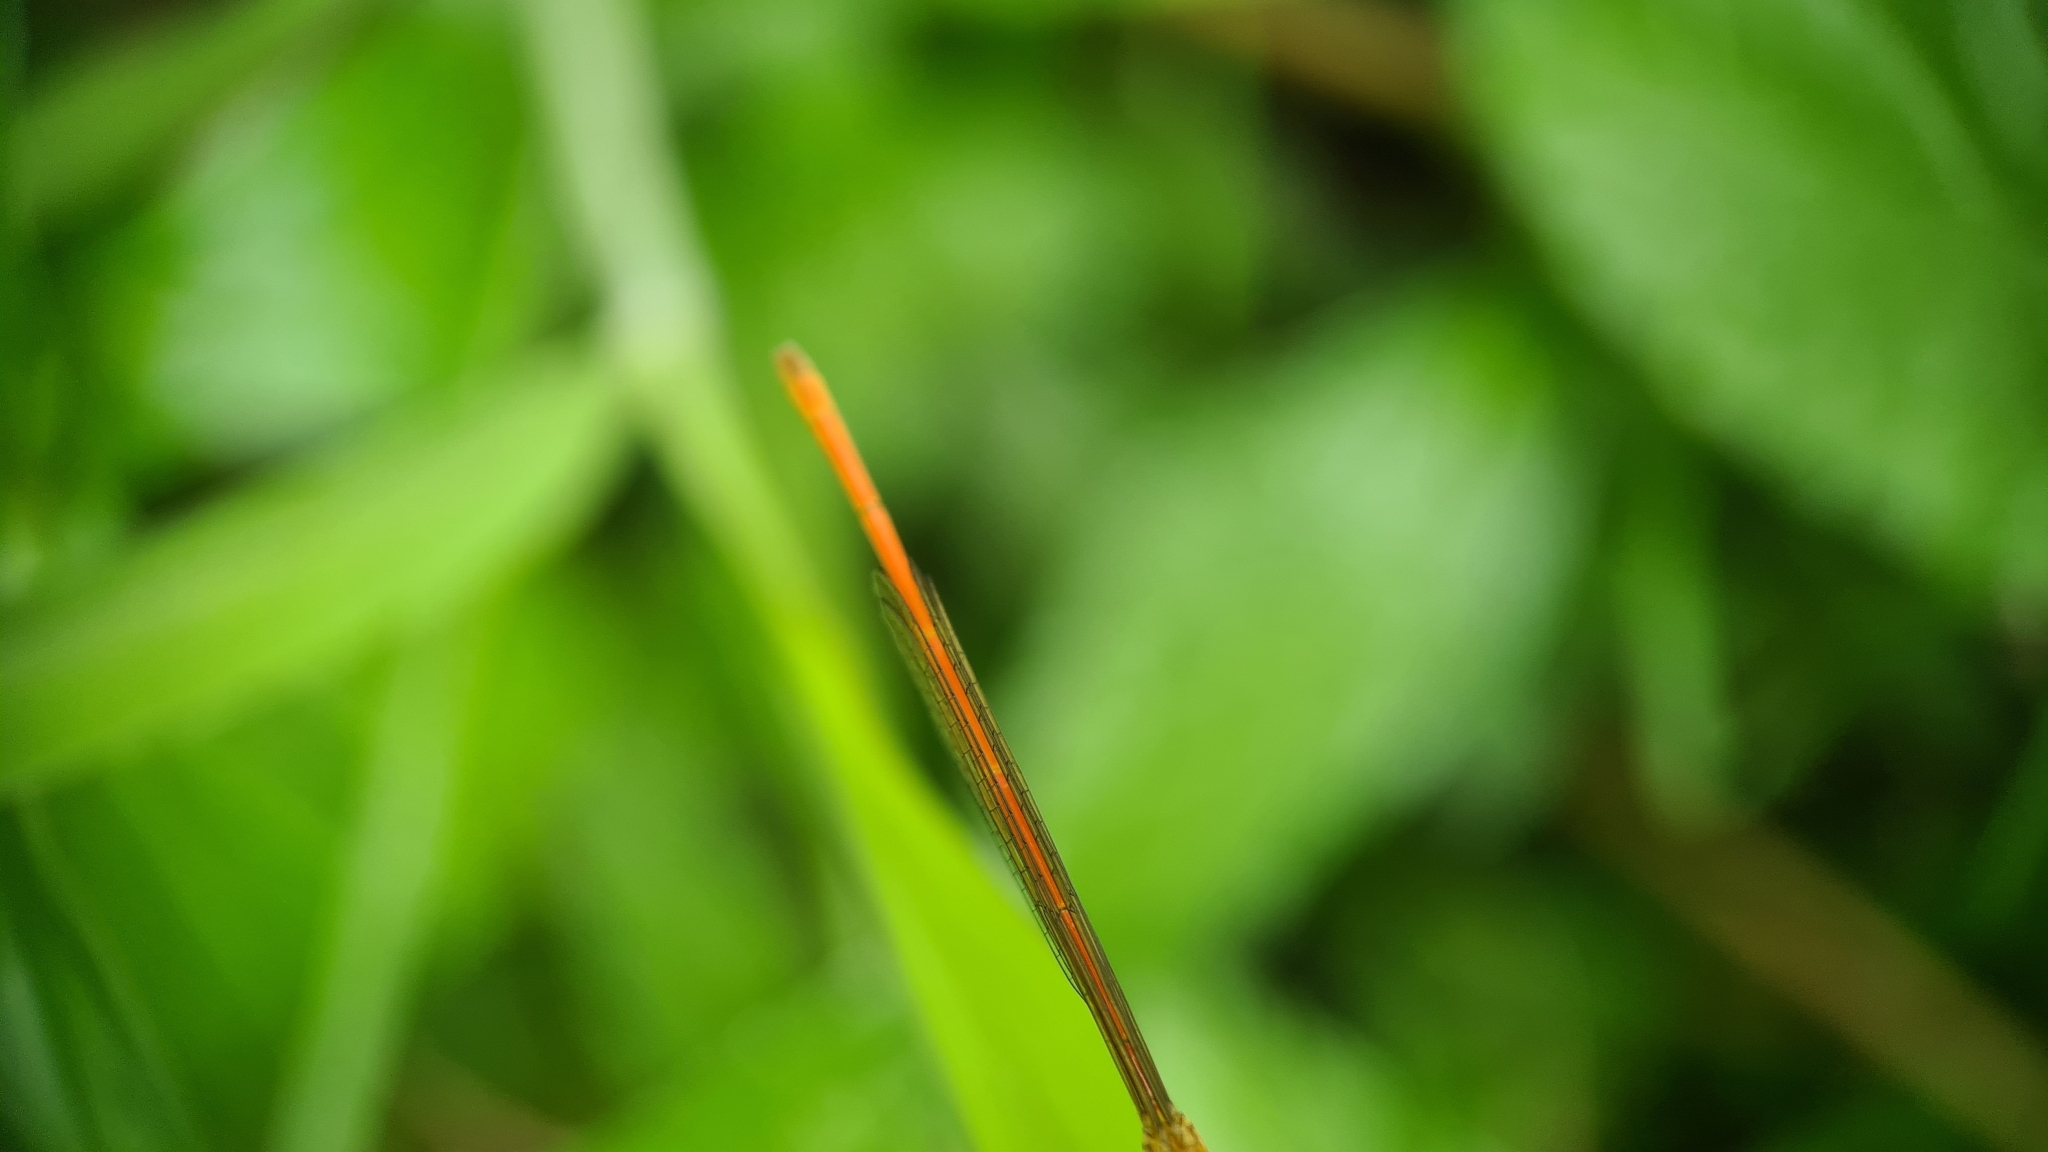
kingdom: Animalia
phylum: Arthropoda
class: Insecta
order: Odonata
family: Coenagrionidae
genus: Argiocnemis
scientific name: Argiocnemis rubescens
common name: Red-tipped shadefly
